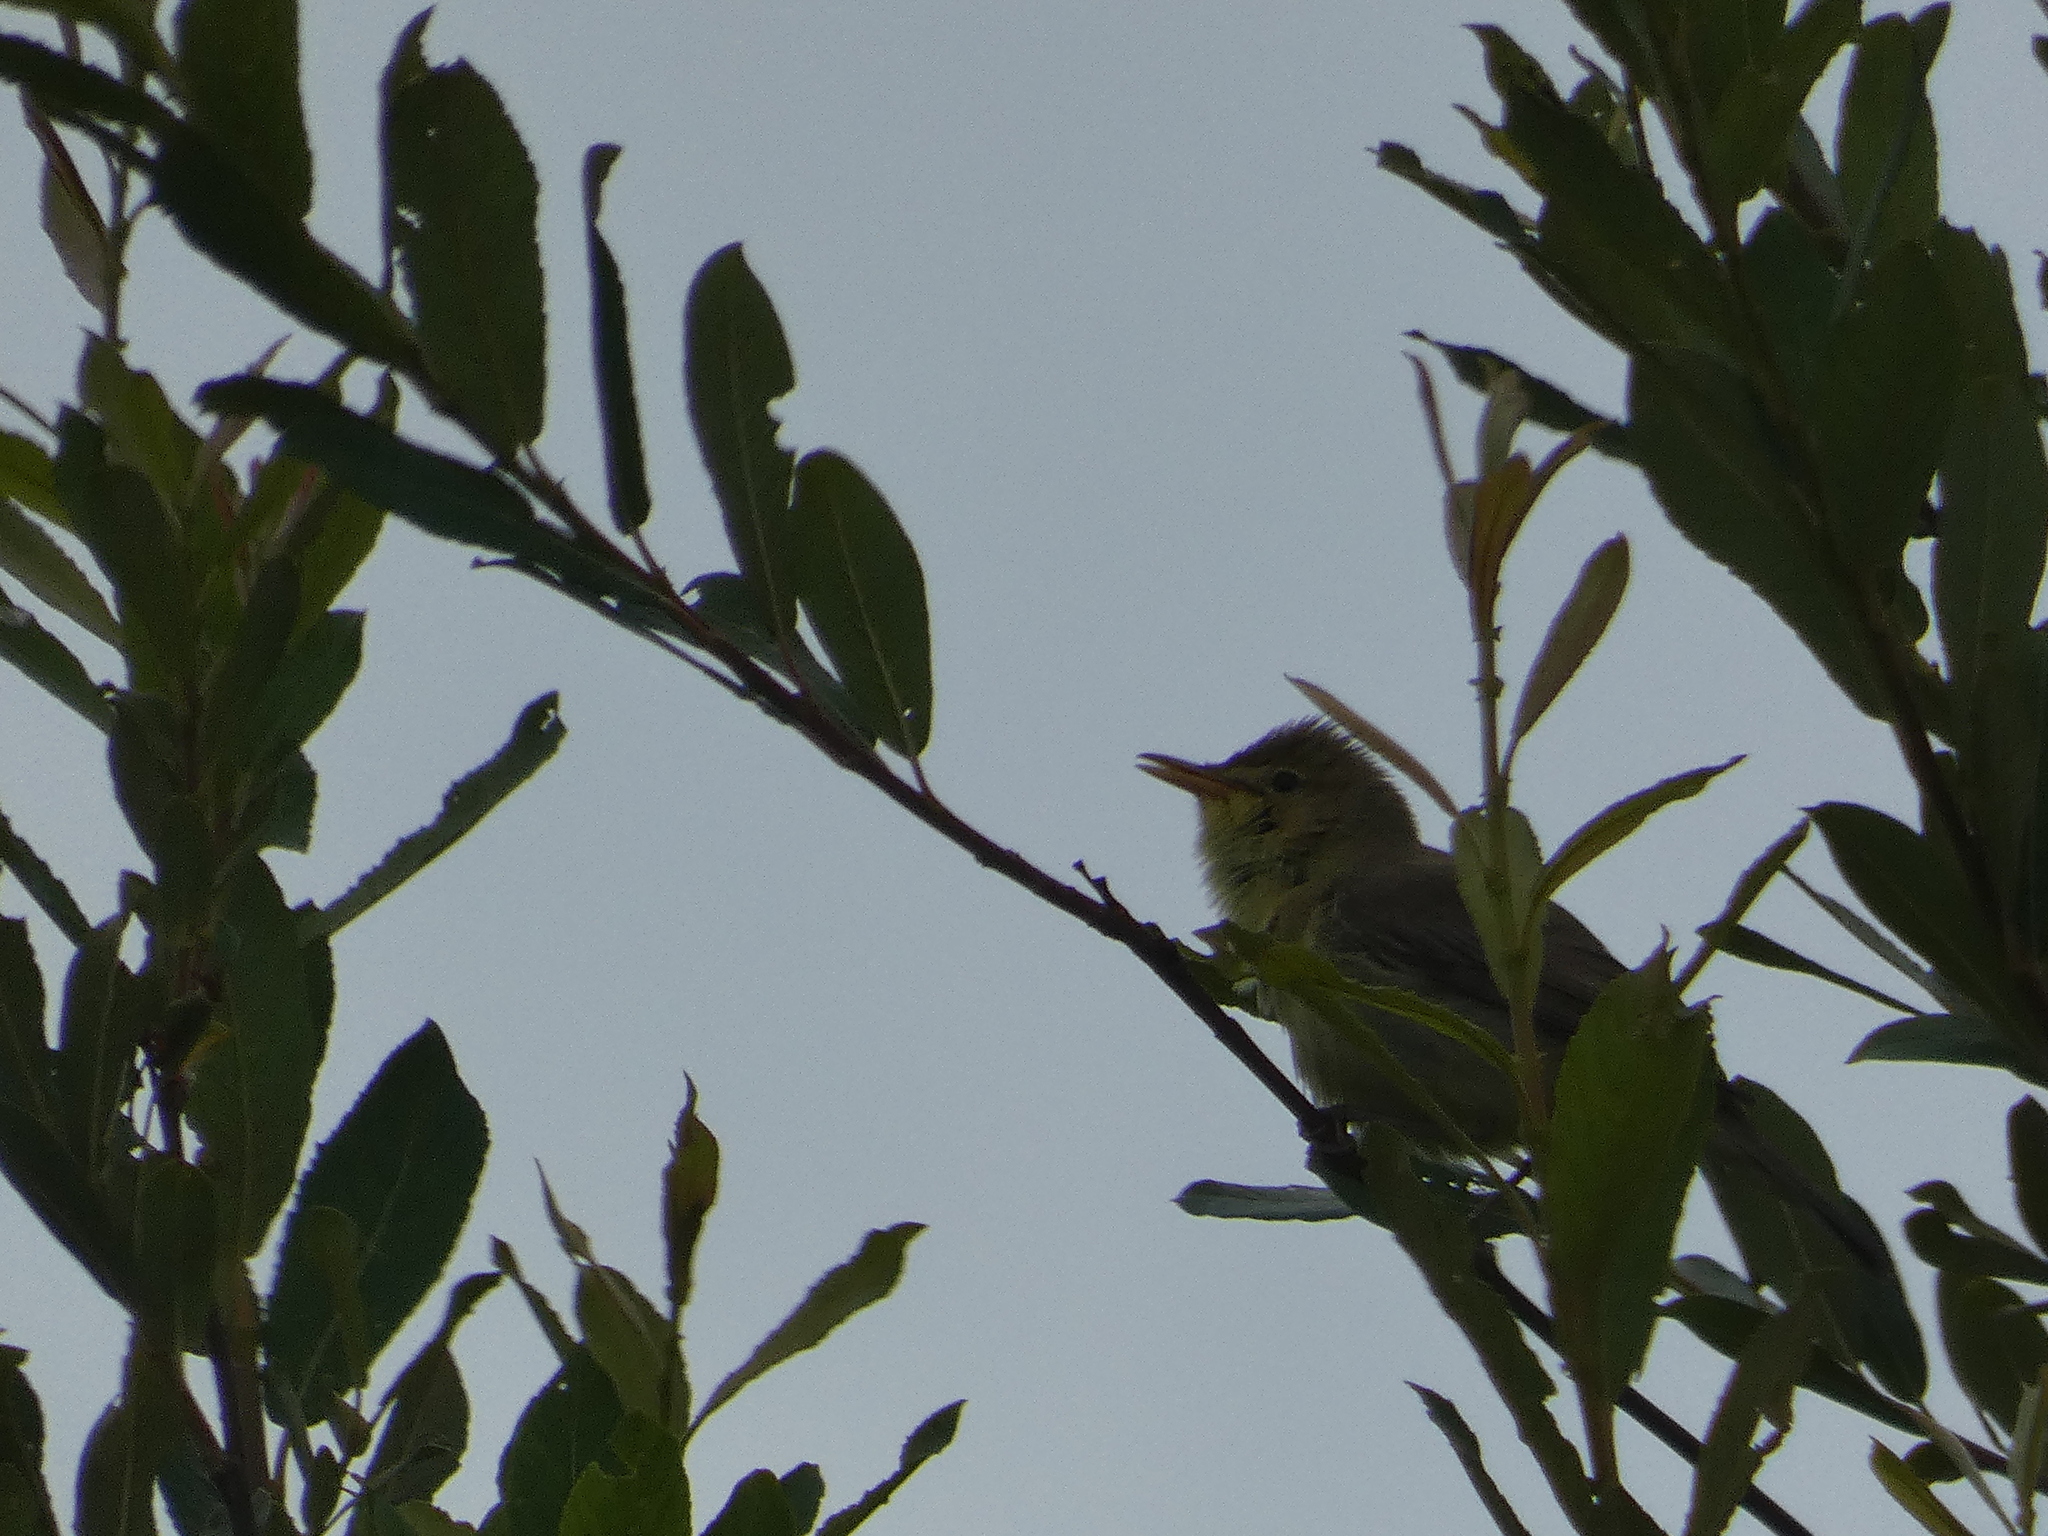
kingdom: Animalia
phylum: Chordata
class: Aves
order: Passeriformes
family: Acrocephalidae
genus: Hippolais
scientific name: Hippolais polyglotta
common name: Melodious warbler
